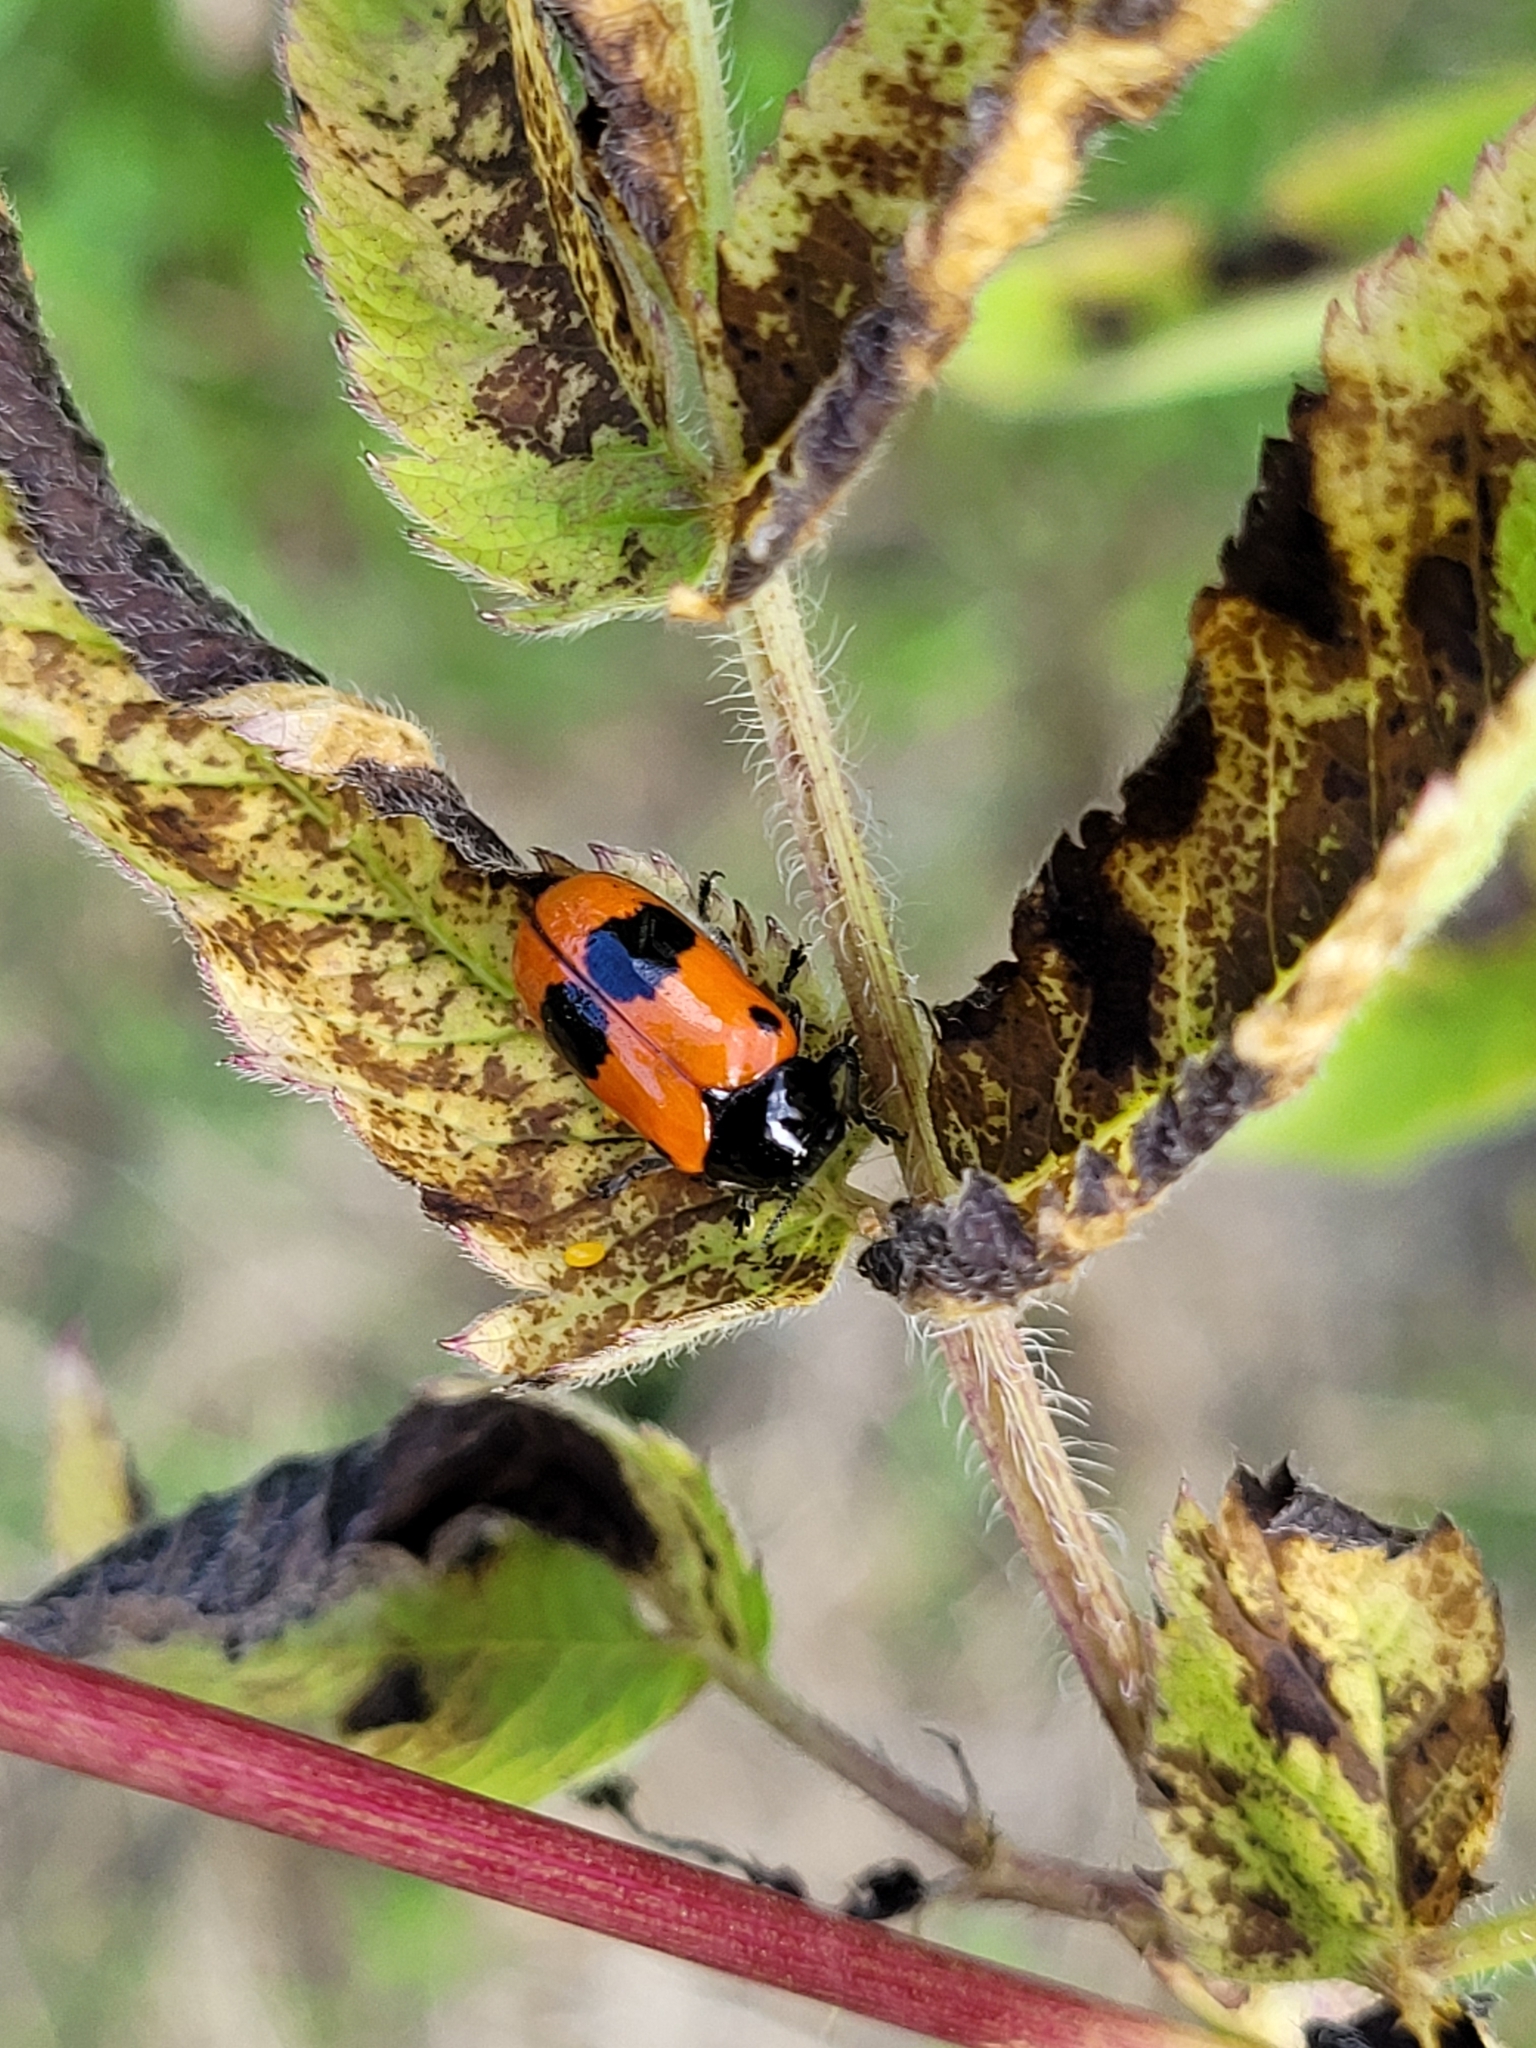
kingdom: Animalia
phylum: Arthropoda
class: Insecta
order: Coleoptera
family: Chrysomelidae
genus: Clytra
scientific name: Clytra laeviuscula
